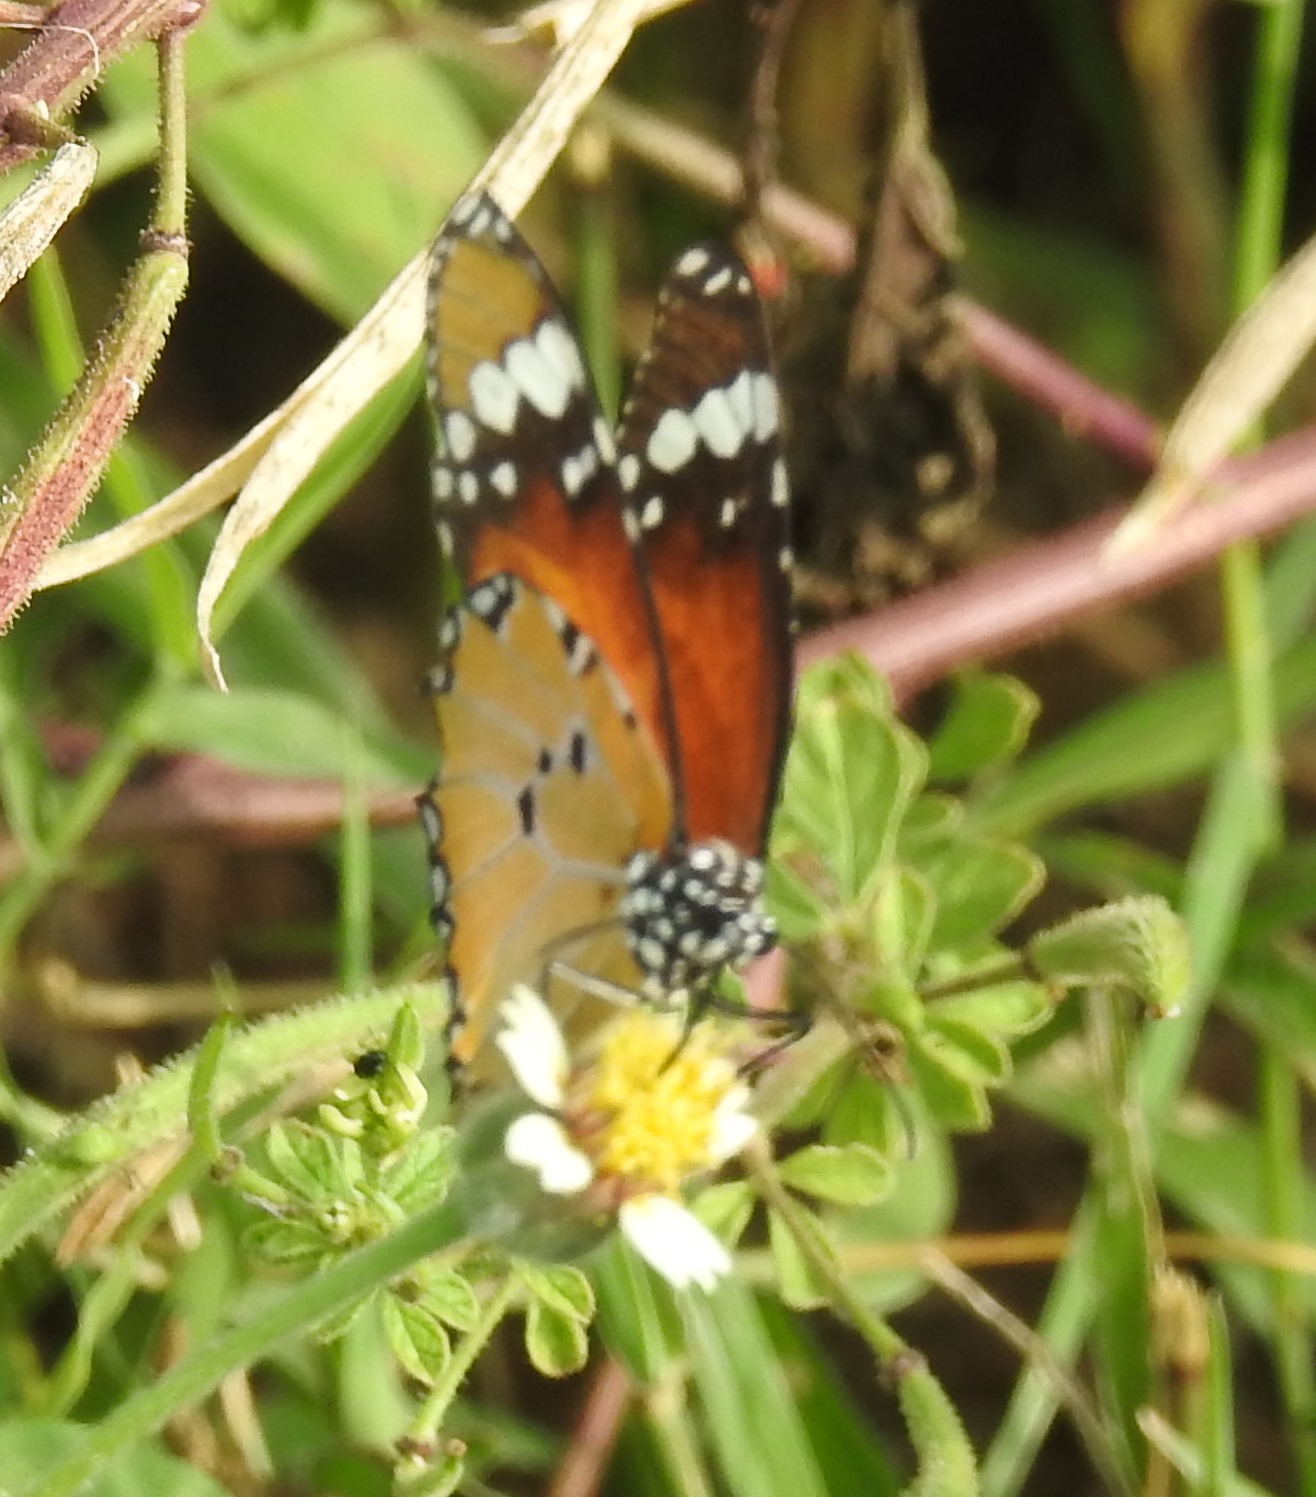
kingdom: Animalia
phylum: Arthropoda
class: Insecta
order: Lepidoptera
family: Nymphalidae
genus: Danaus
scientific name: Danaus chrysippus
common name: Plain tiger
